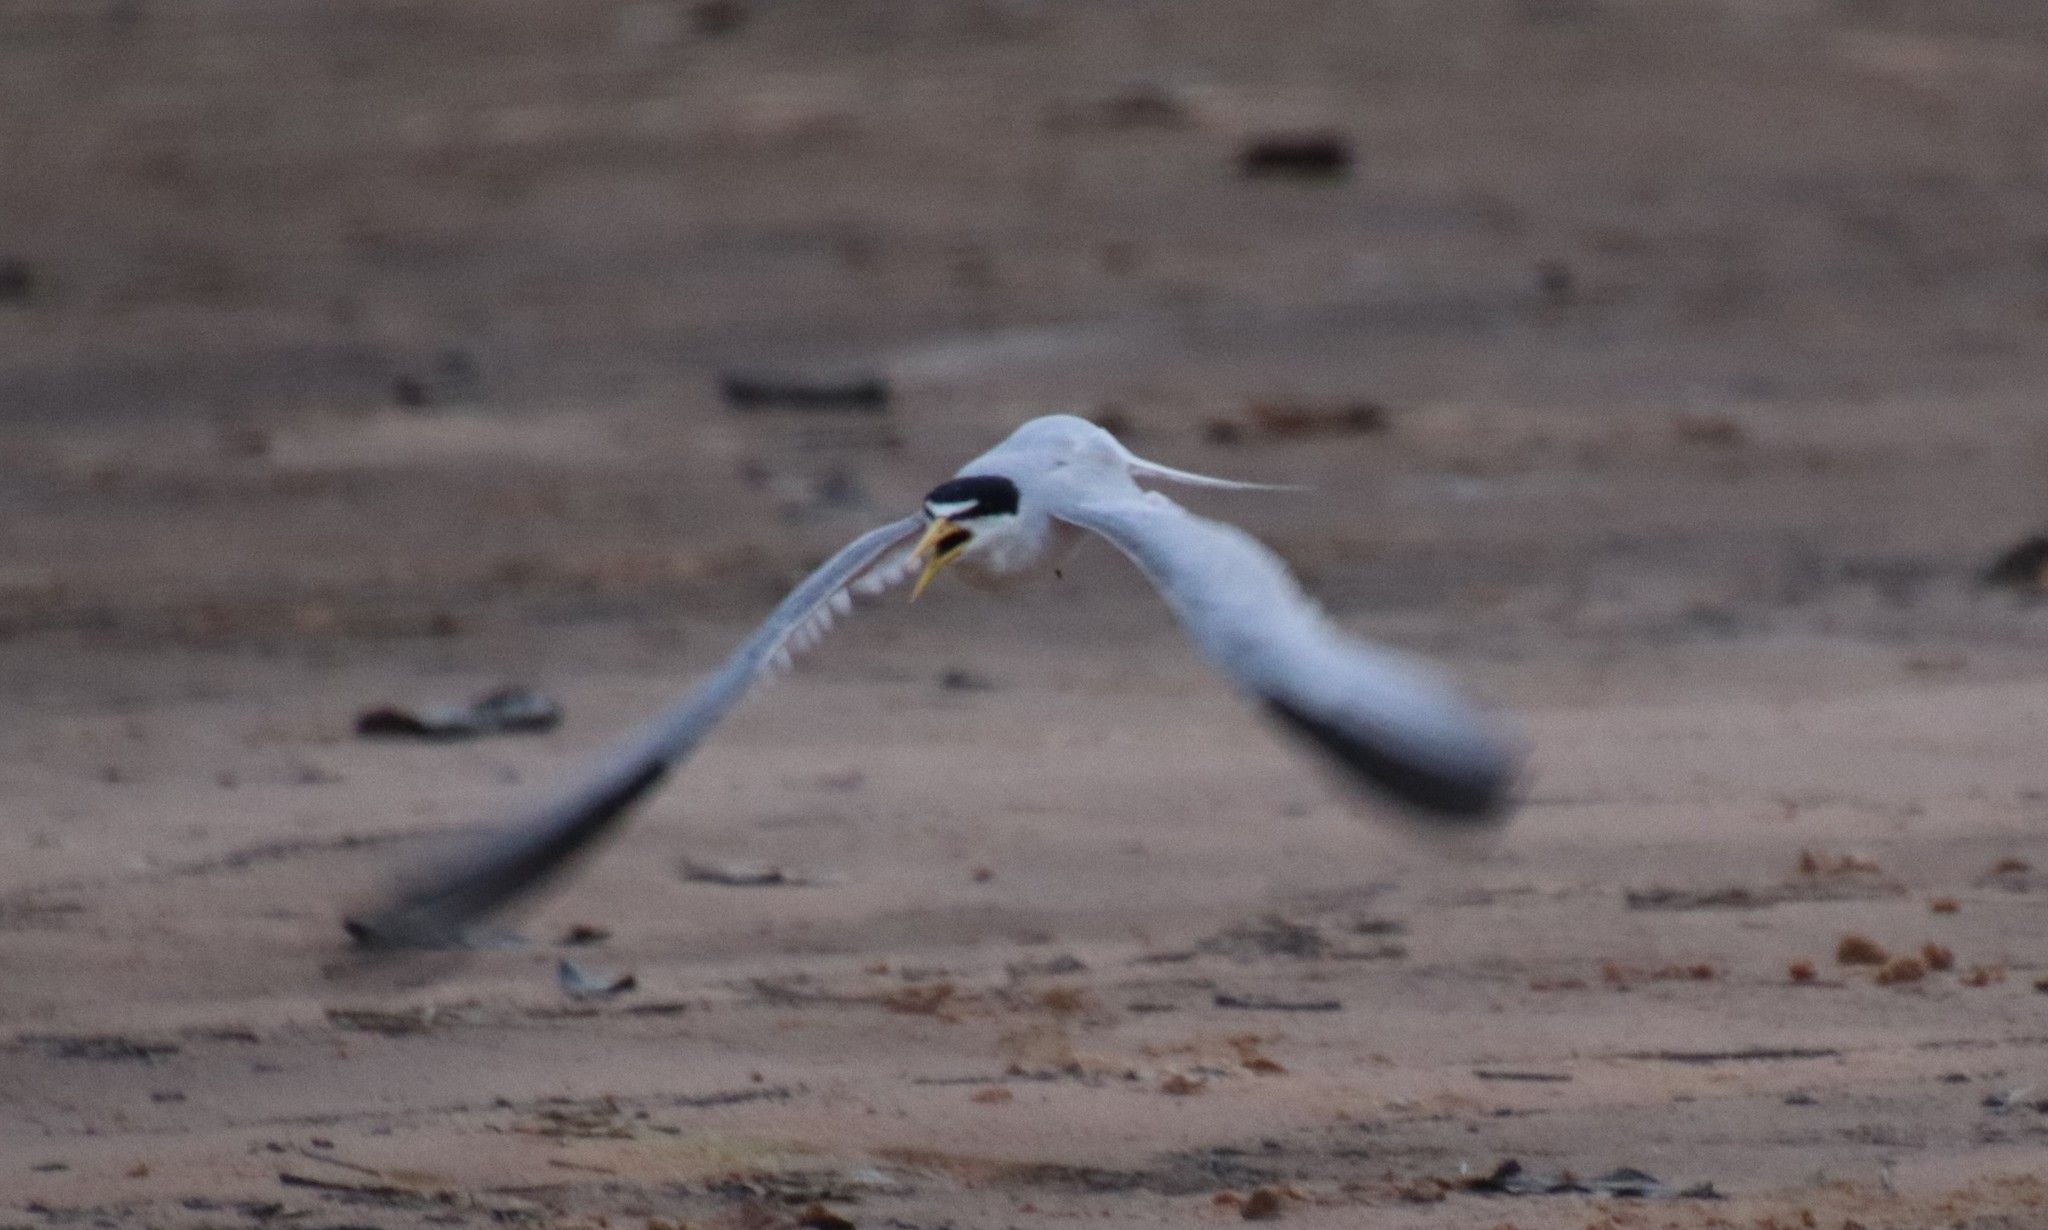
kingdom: Animalia
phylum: Chordata
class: Aves
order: Charadriiformes
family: Laridae
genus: Sternula
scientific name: Sternula superciliaris
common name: Yellow-billed tern
